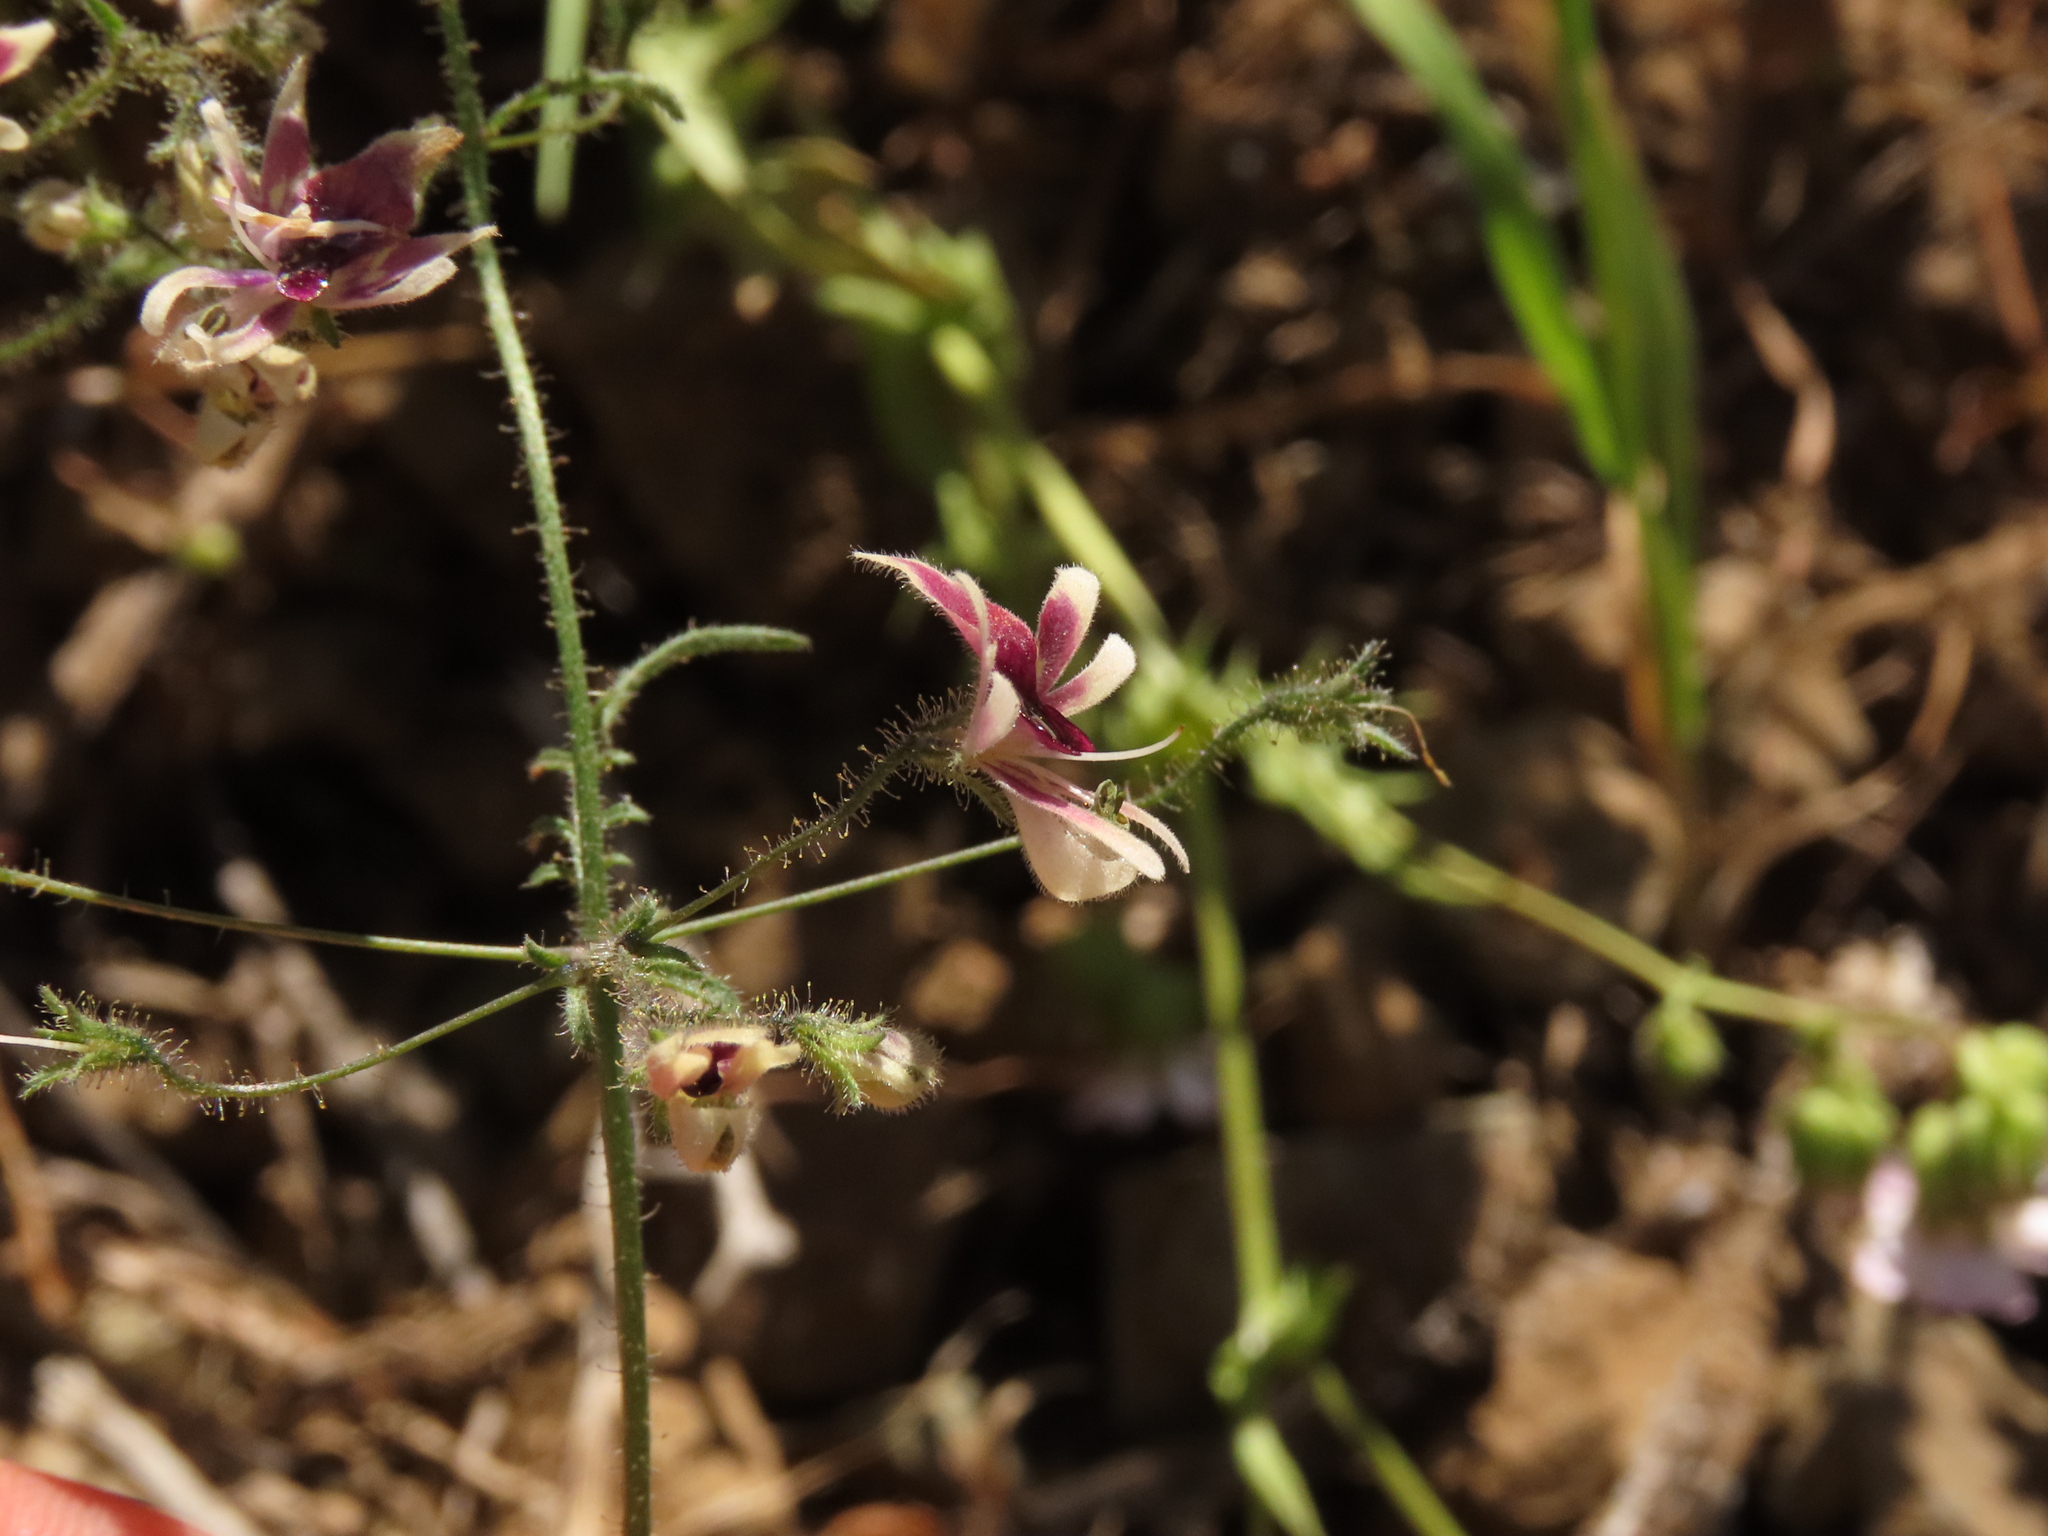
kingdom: Plantae
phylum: Tracheophyta
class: Magnoliopsida
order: Solanales
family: Solanaceae
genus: Schizanthus
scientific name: Schizanthus parvulus
